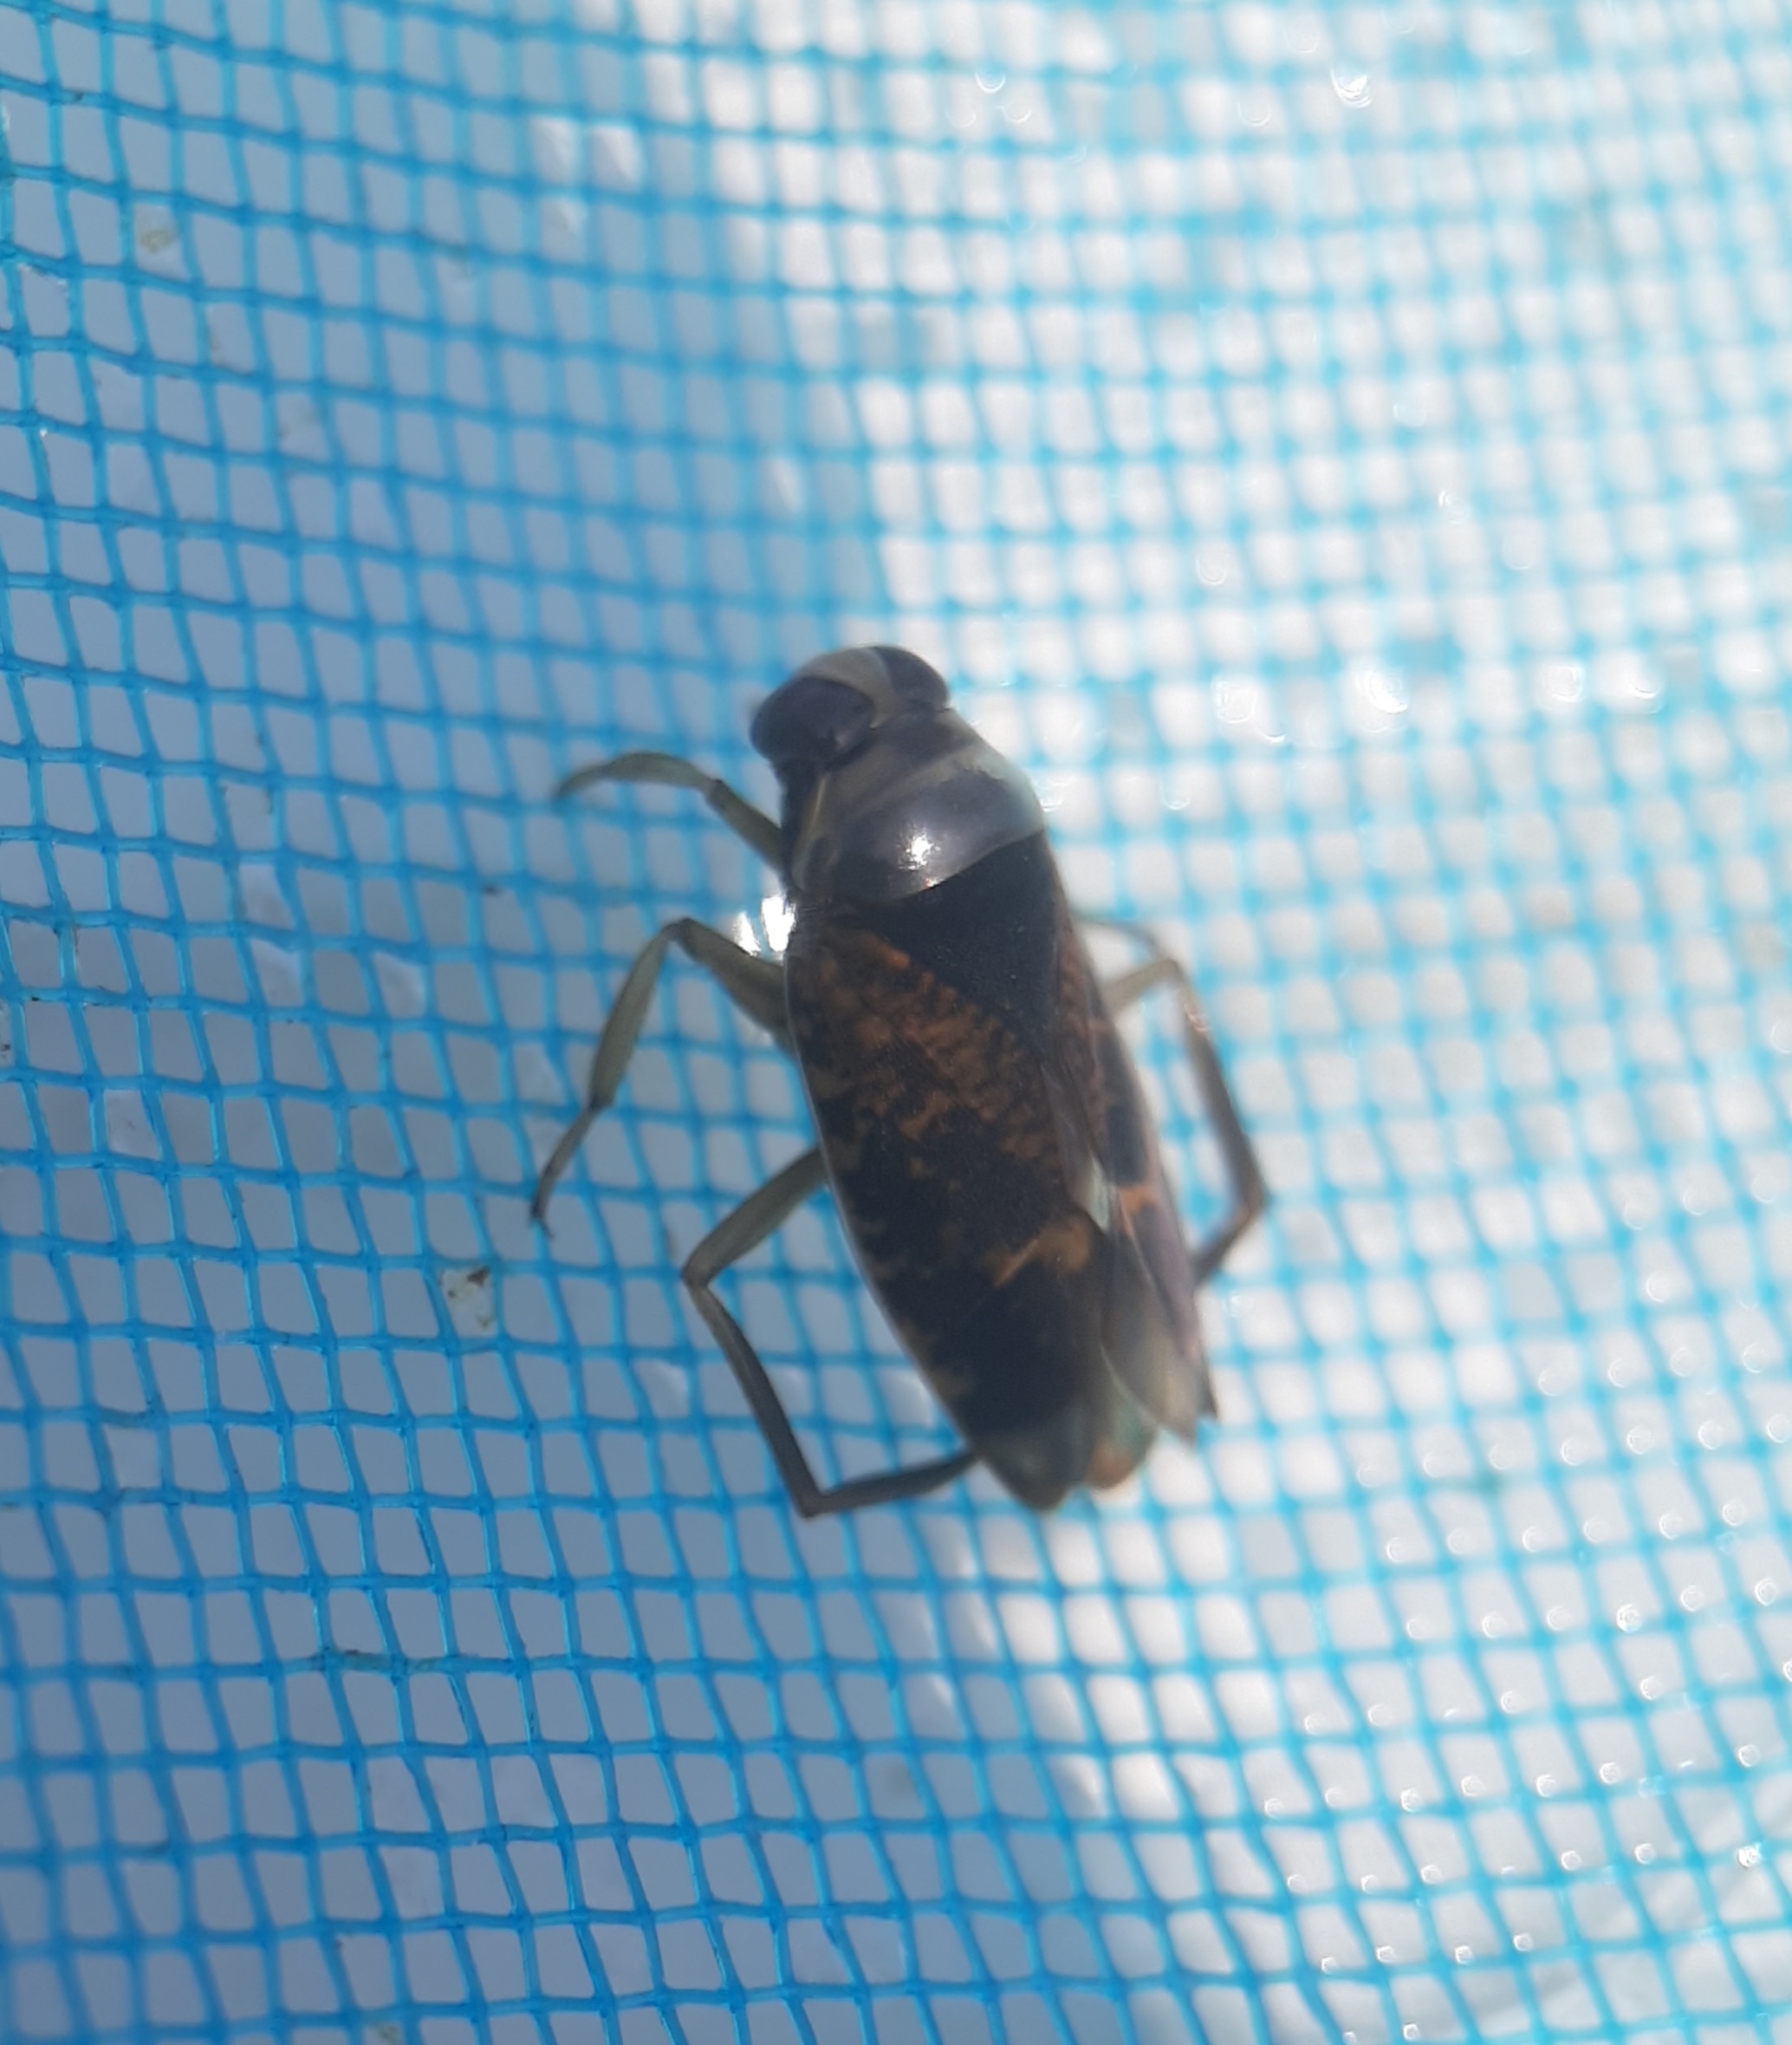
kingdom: Animalia
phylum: Arthropoda
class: Insecta
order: Hemiptera
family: Notonectidae
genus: Notonecta
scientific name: Notonecta irrorata
